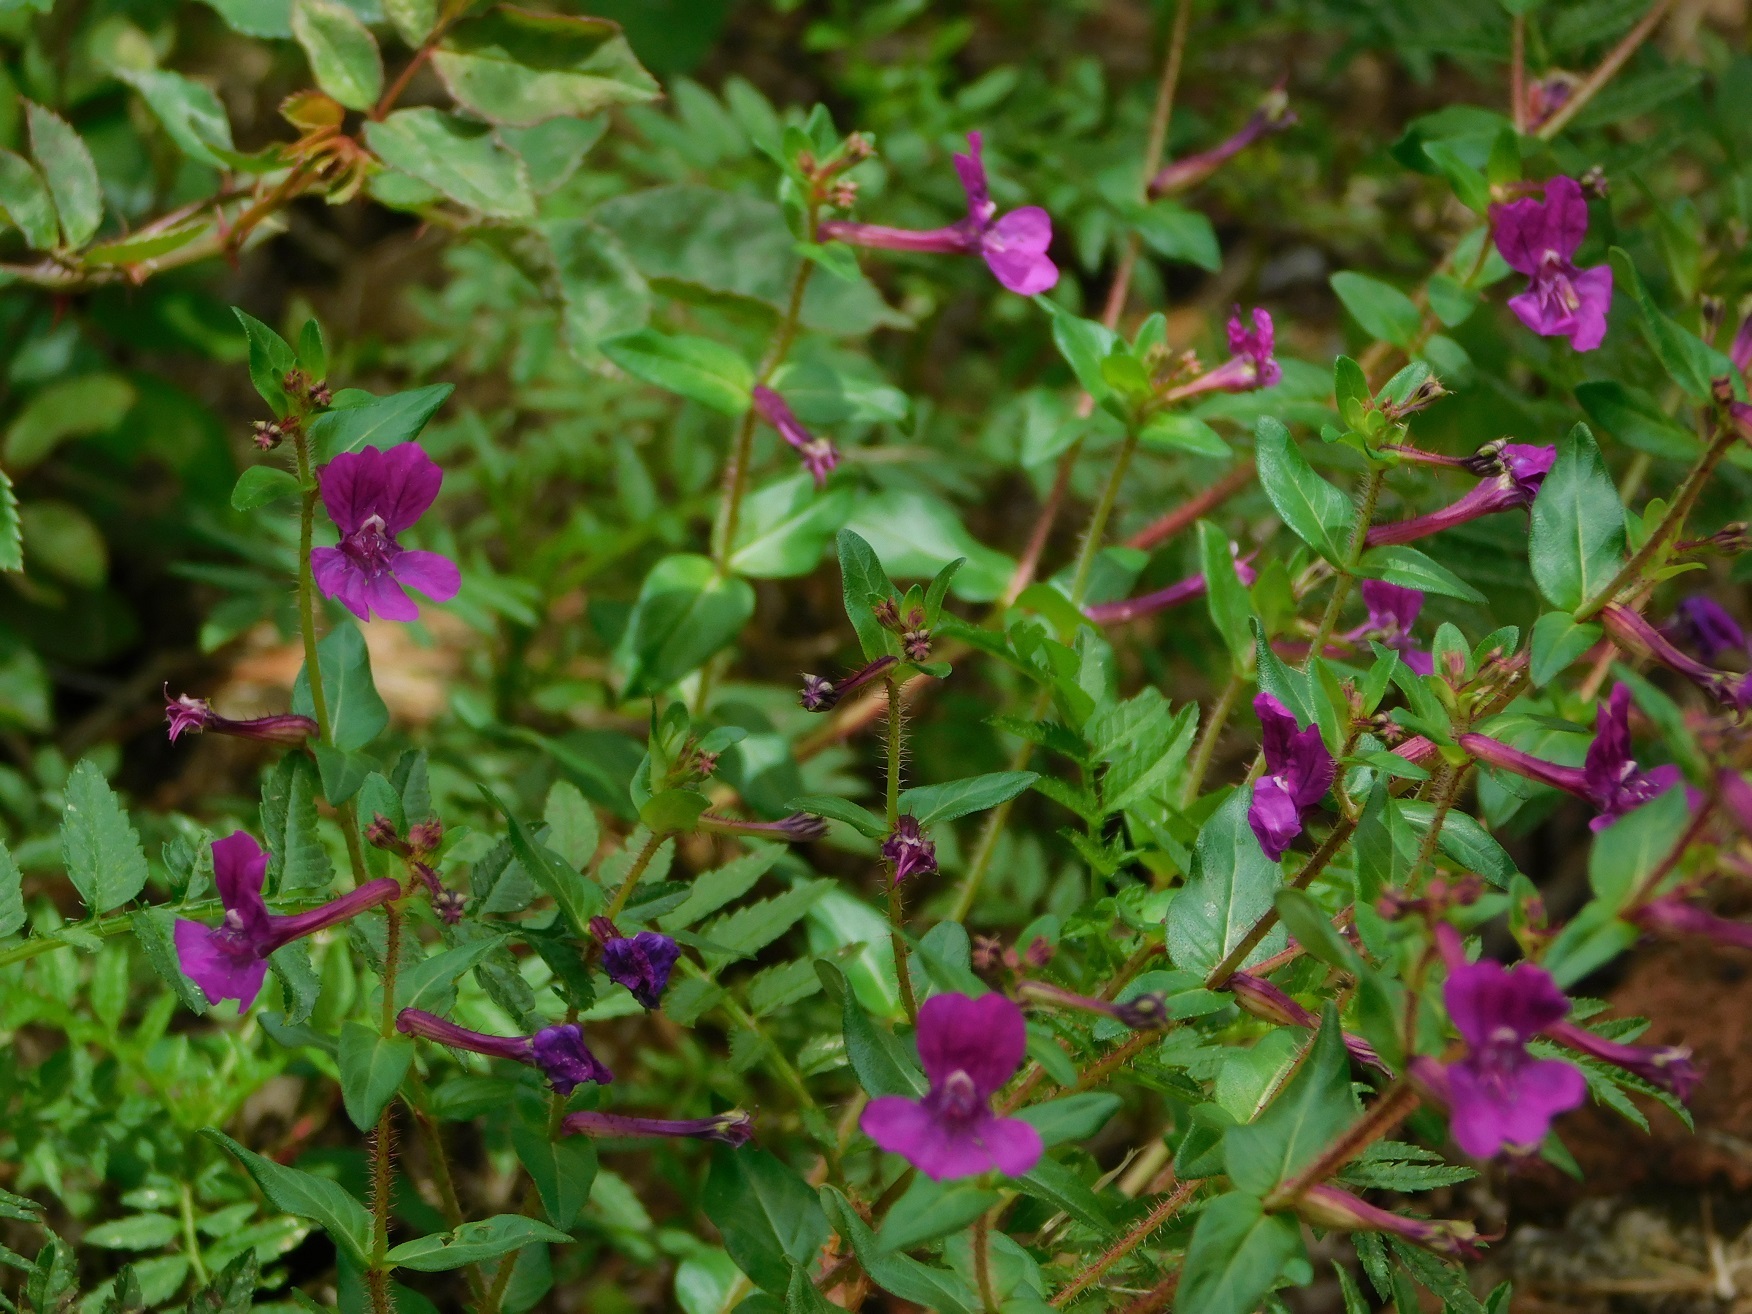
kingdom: Plantae
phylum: Tracheophyta
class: Magnoliopsida
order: Myrtales
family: Lythraceae
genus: Cuphea
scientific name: Cuphea aequipetala
